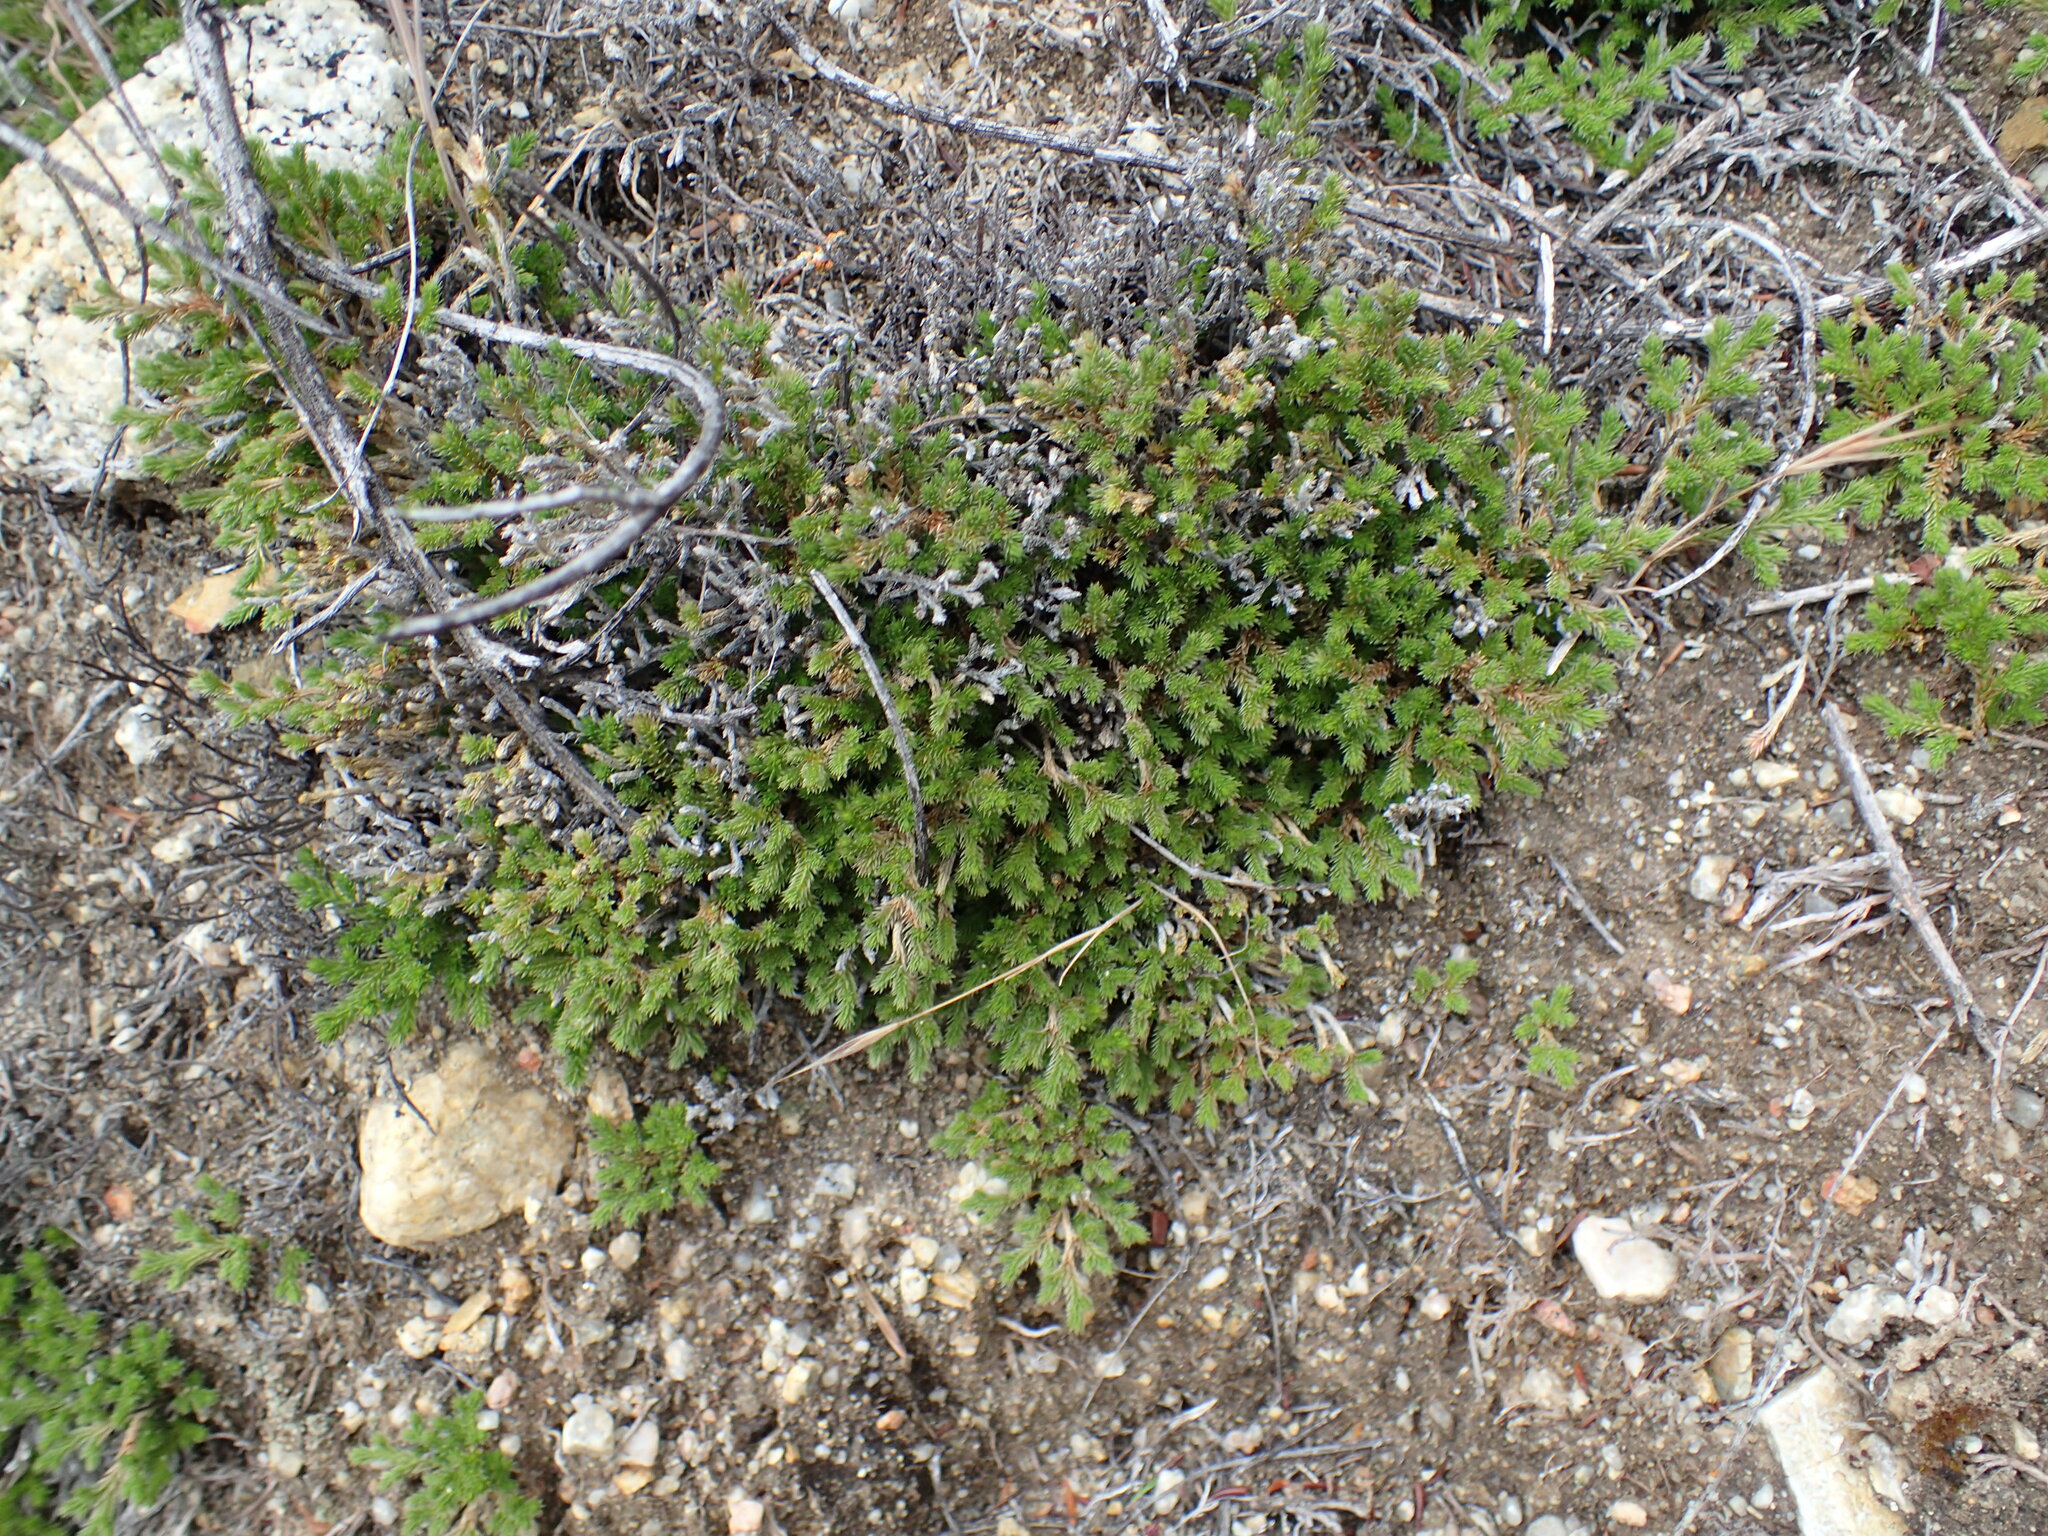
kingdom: Plantae
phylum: Tracheophyta
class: Lycopodiopsida
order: Selaginellales
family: Selaginellaceae
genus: Selaginella
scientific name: Selaginella bigelovii
